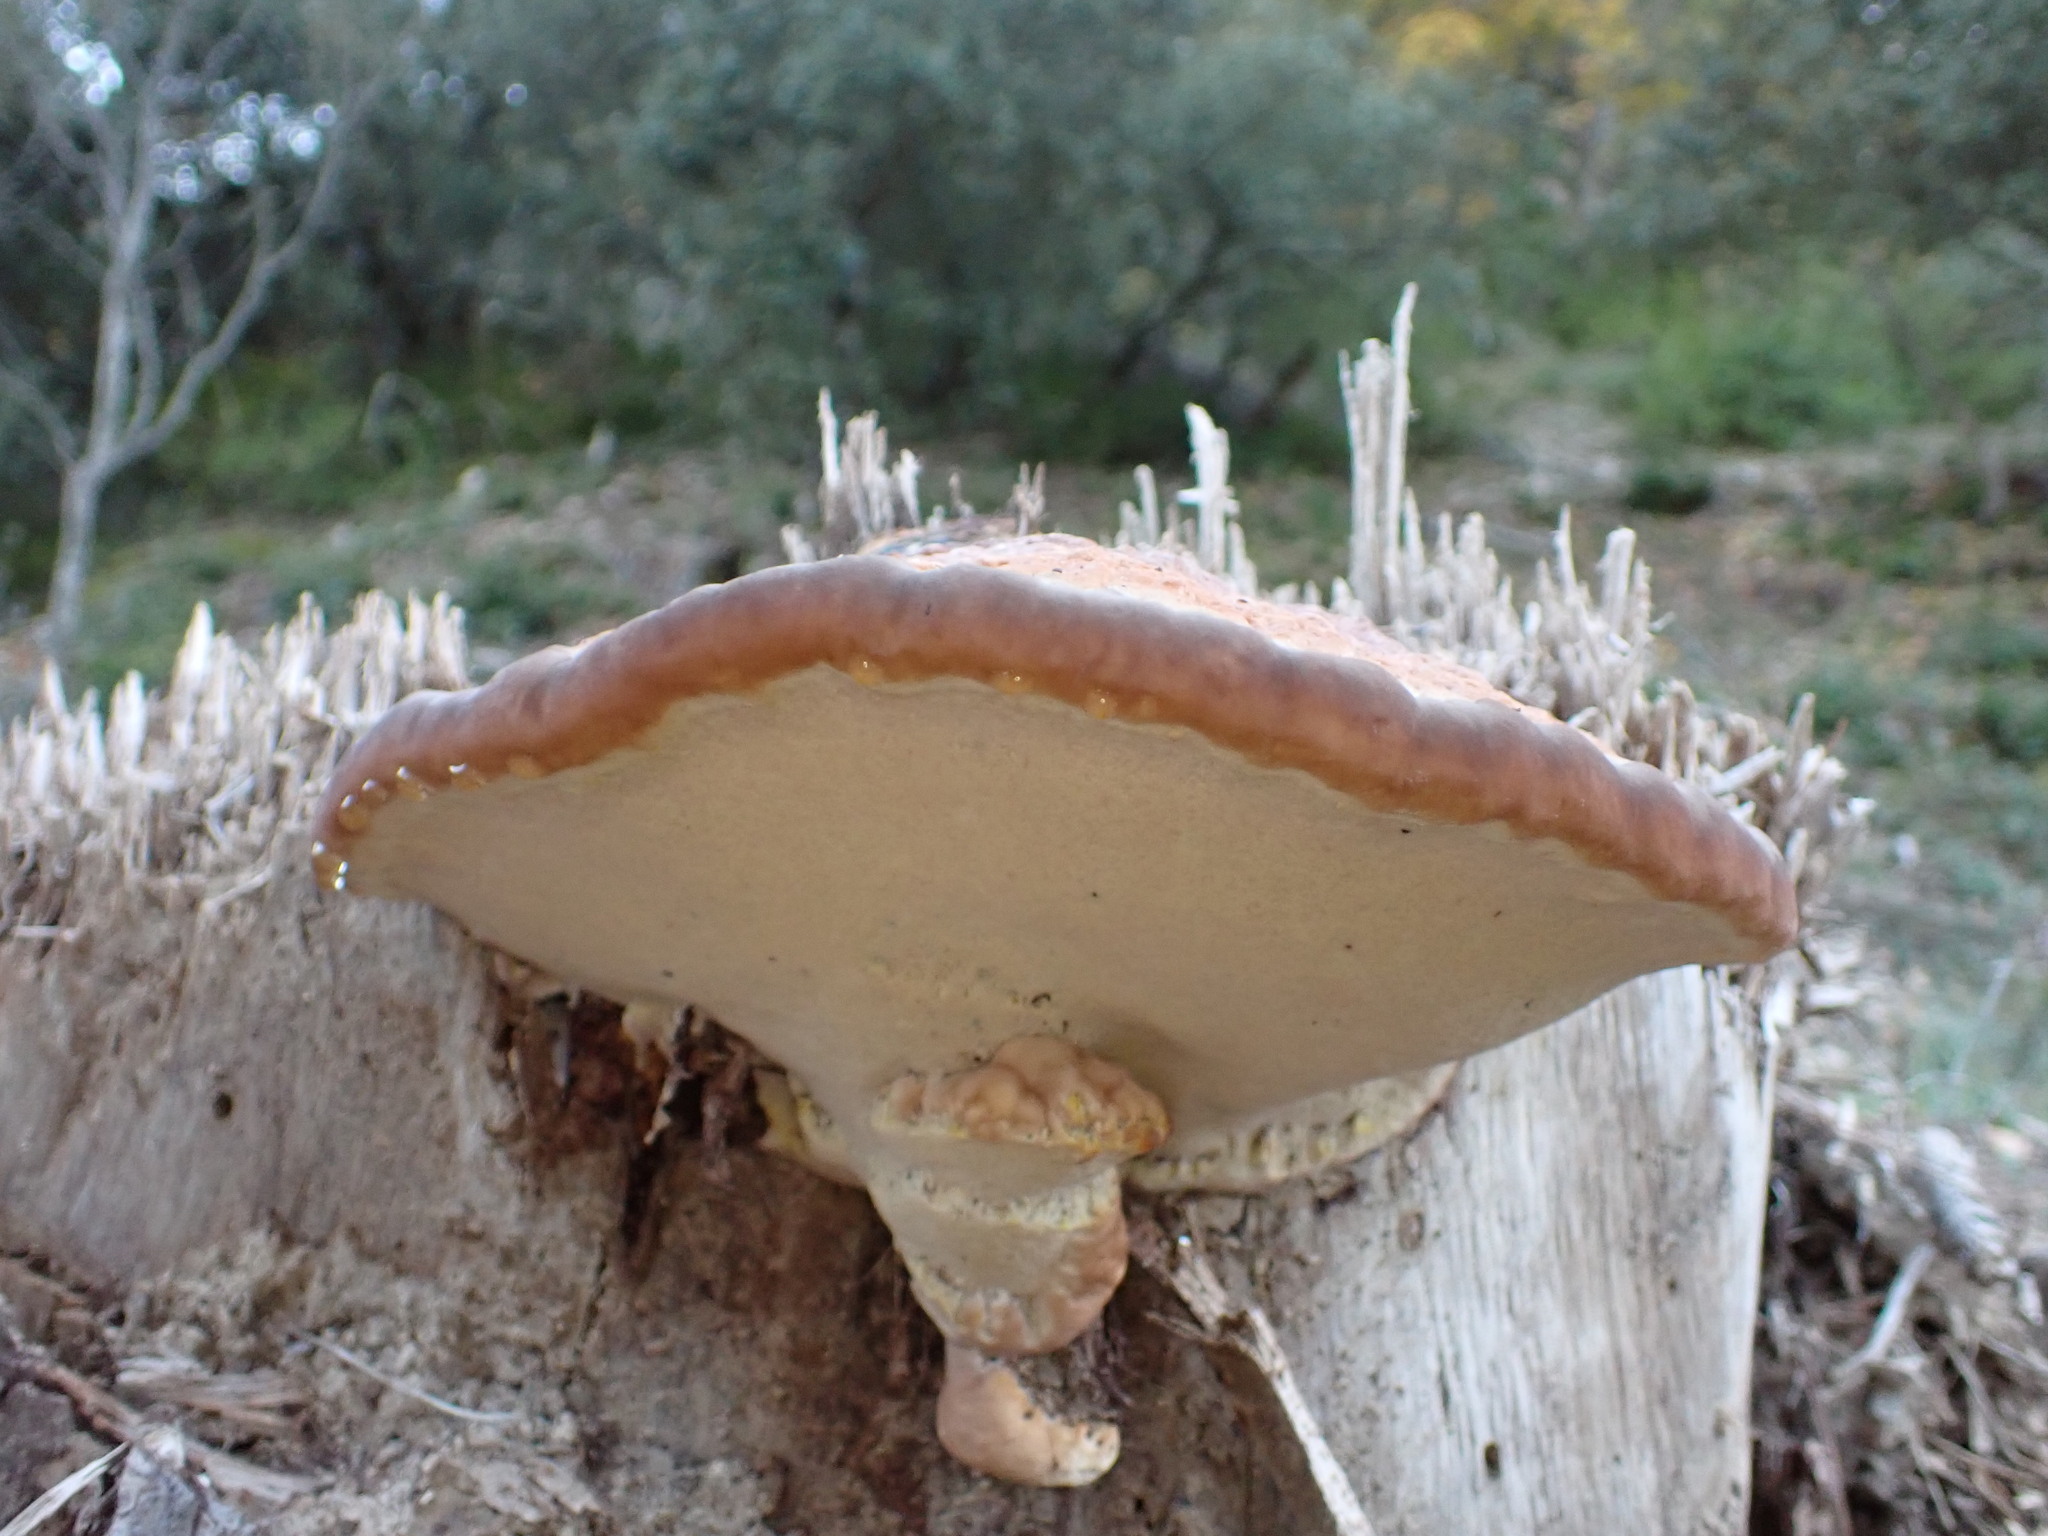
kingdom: Fungi
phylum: Basidiomycota
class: Agaricomycetes
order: Polyporales
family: Fomitopsidaceae
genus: Fomitopsis
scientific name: Fomitopsis pinicola
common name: Red-belted bracket
